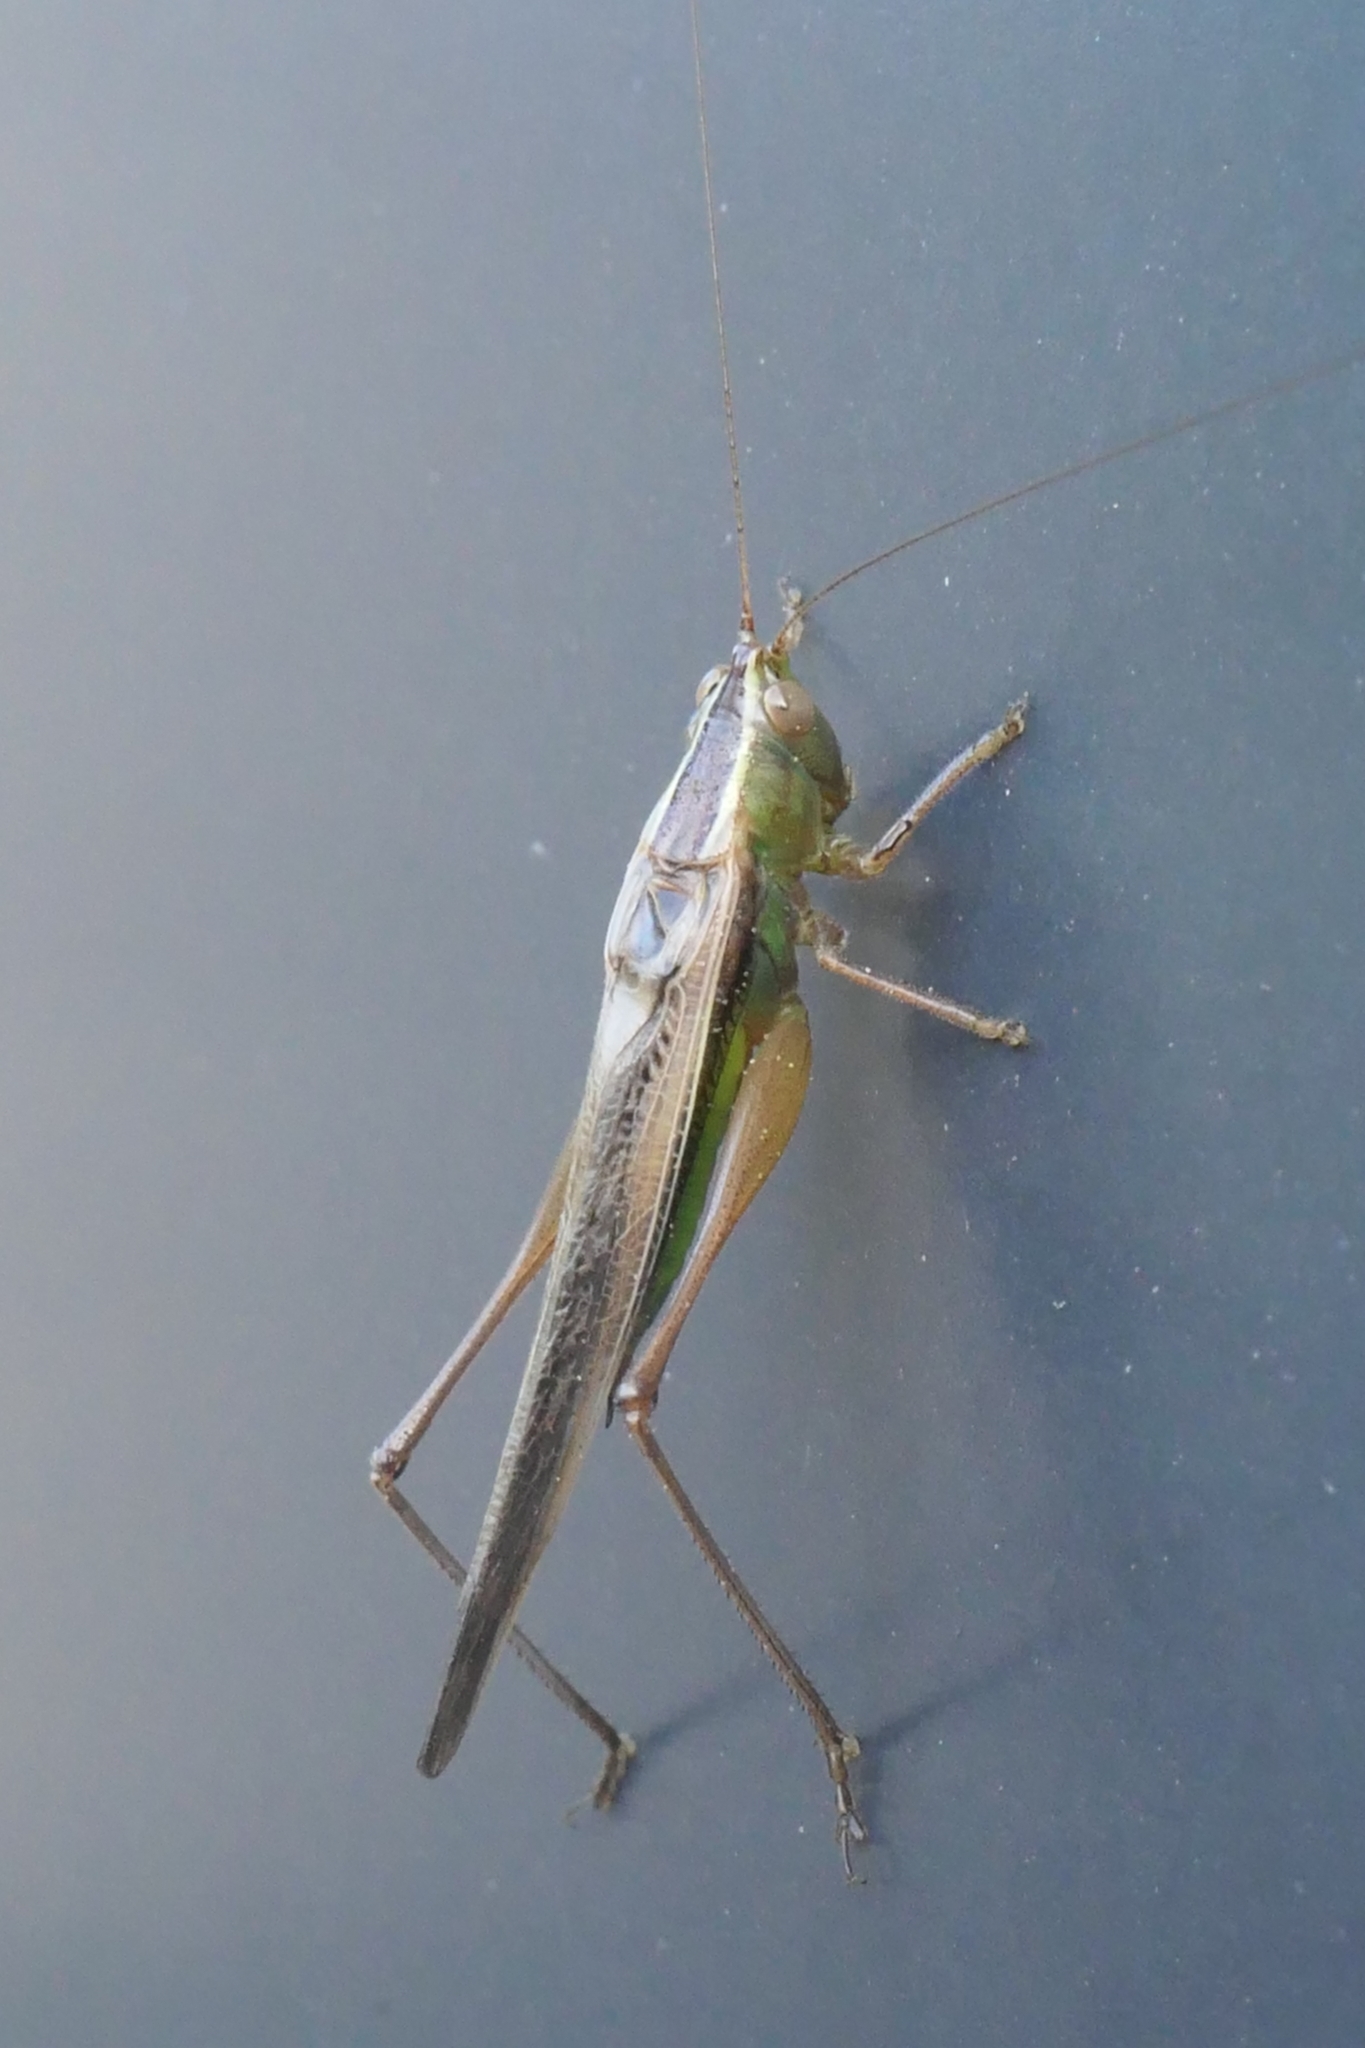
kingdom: Animalia
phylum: Arthropoda
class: Insecta
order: Orthoptera
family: Tettigoniidae
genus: Conocephalus
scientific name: Conocephalus albescens
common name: Whitish meadow katydid
